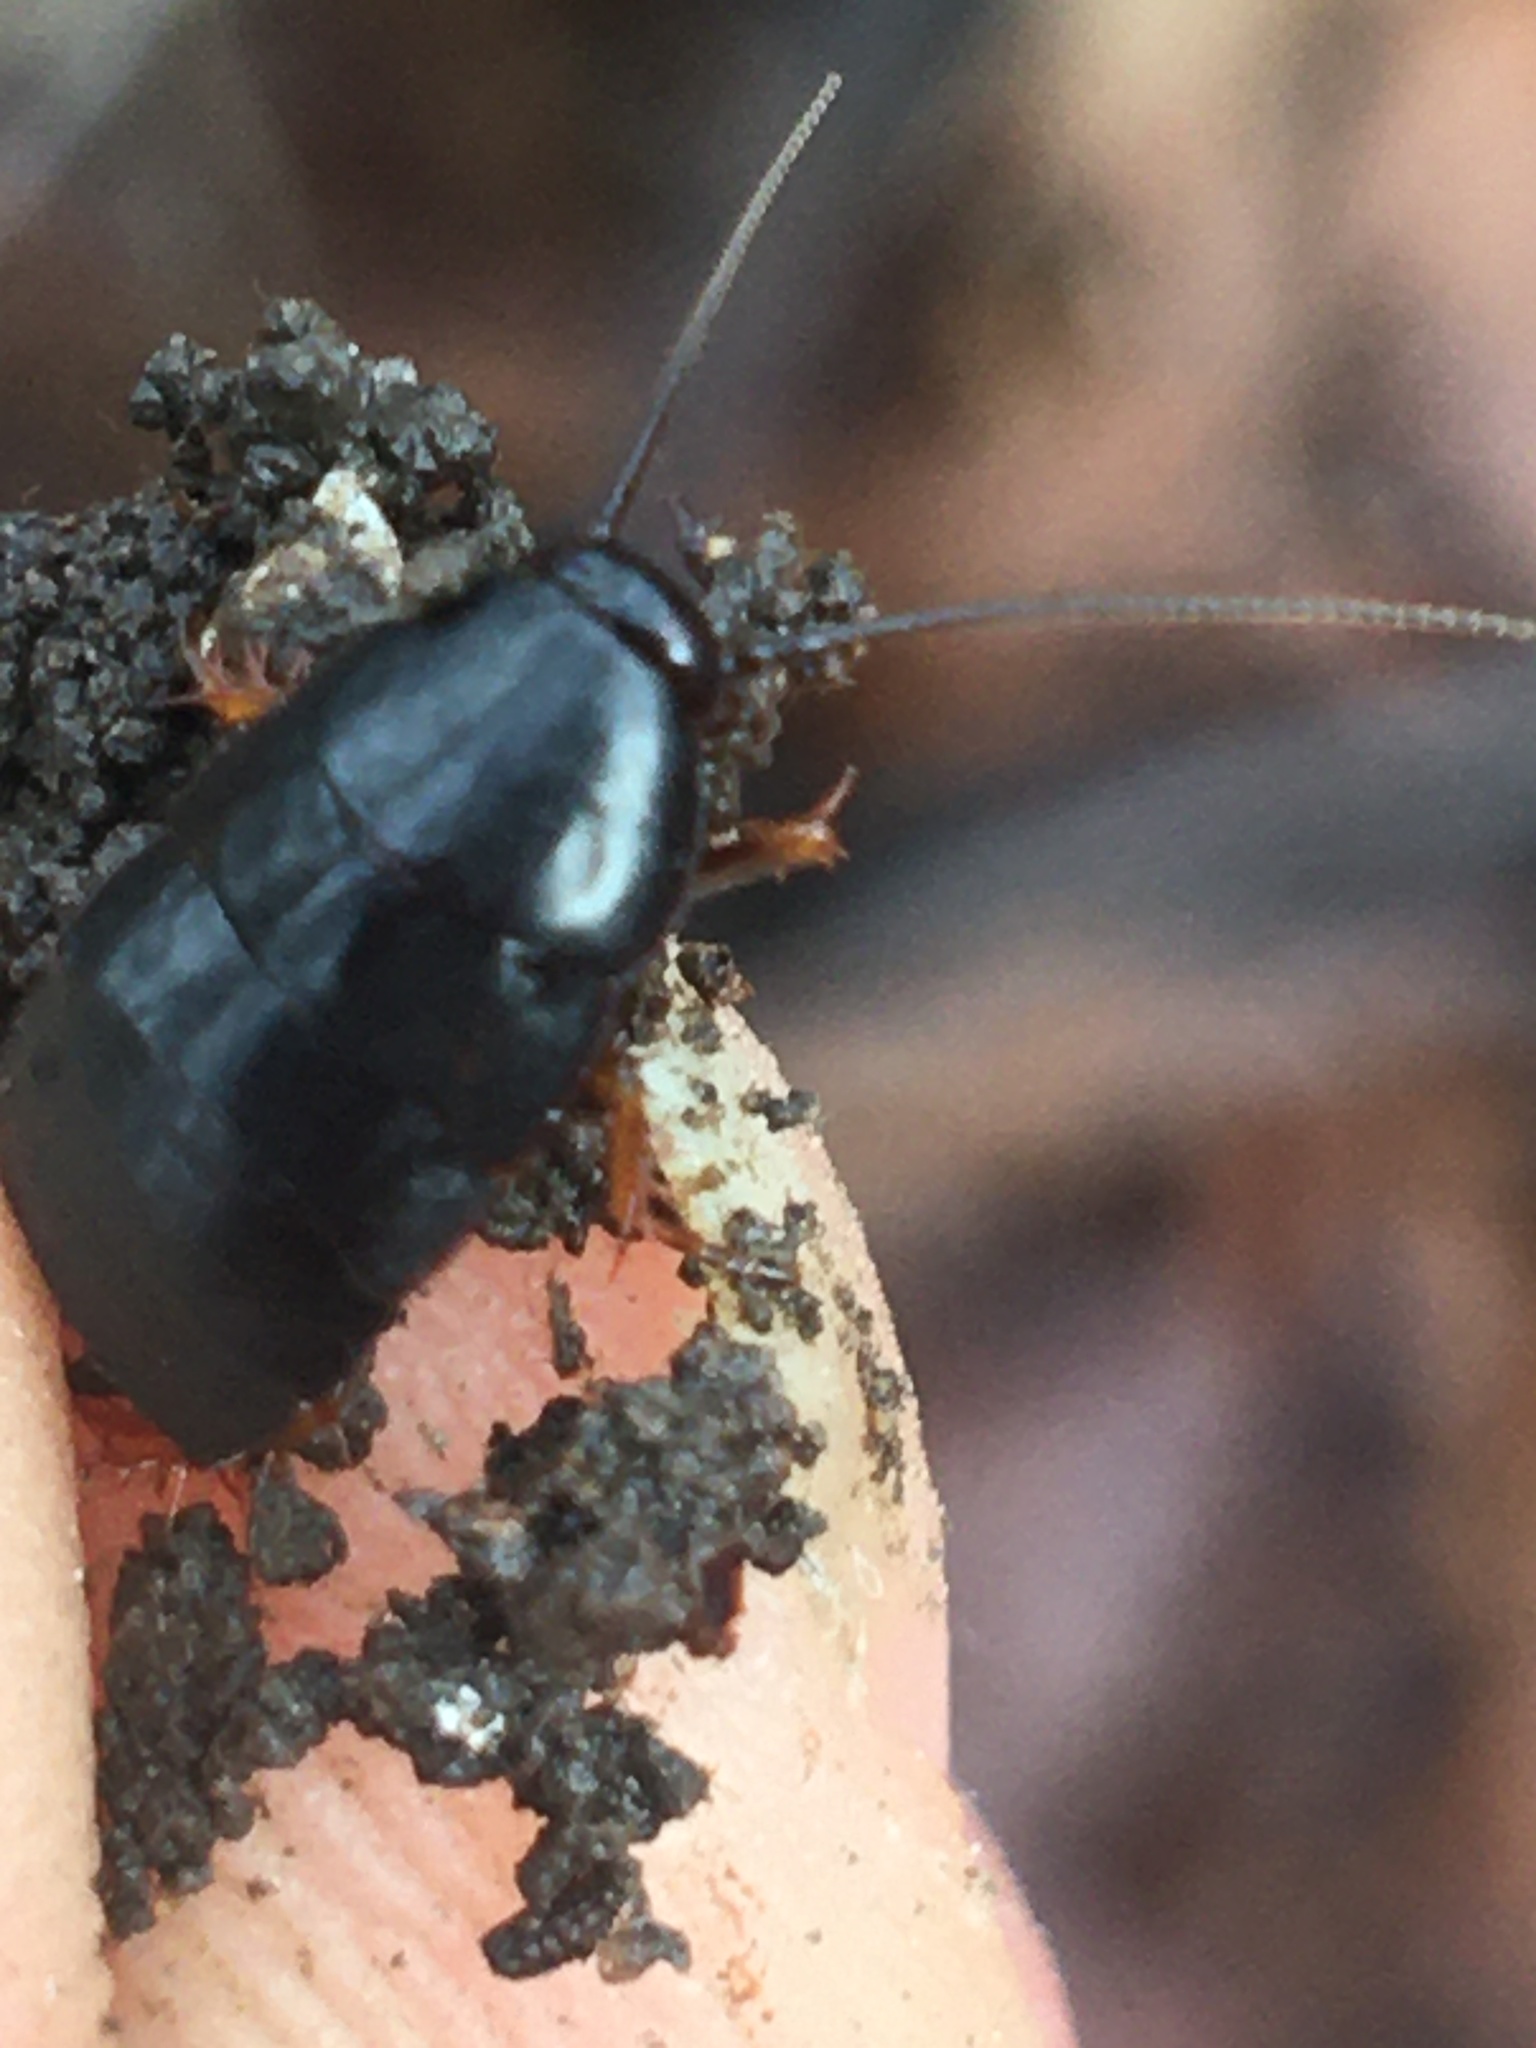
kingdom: Animalia
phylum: Arthropoda
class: Insecta
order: Blattodea
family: Ectobiidae
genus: Ischnoptera
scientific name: Ischnoptera deropeltiformis
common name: Dark wood cockroach
